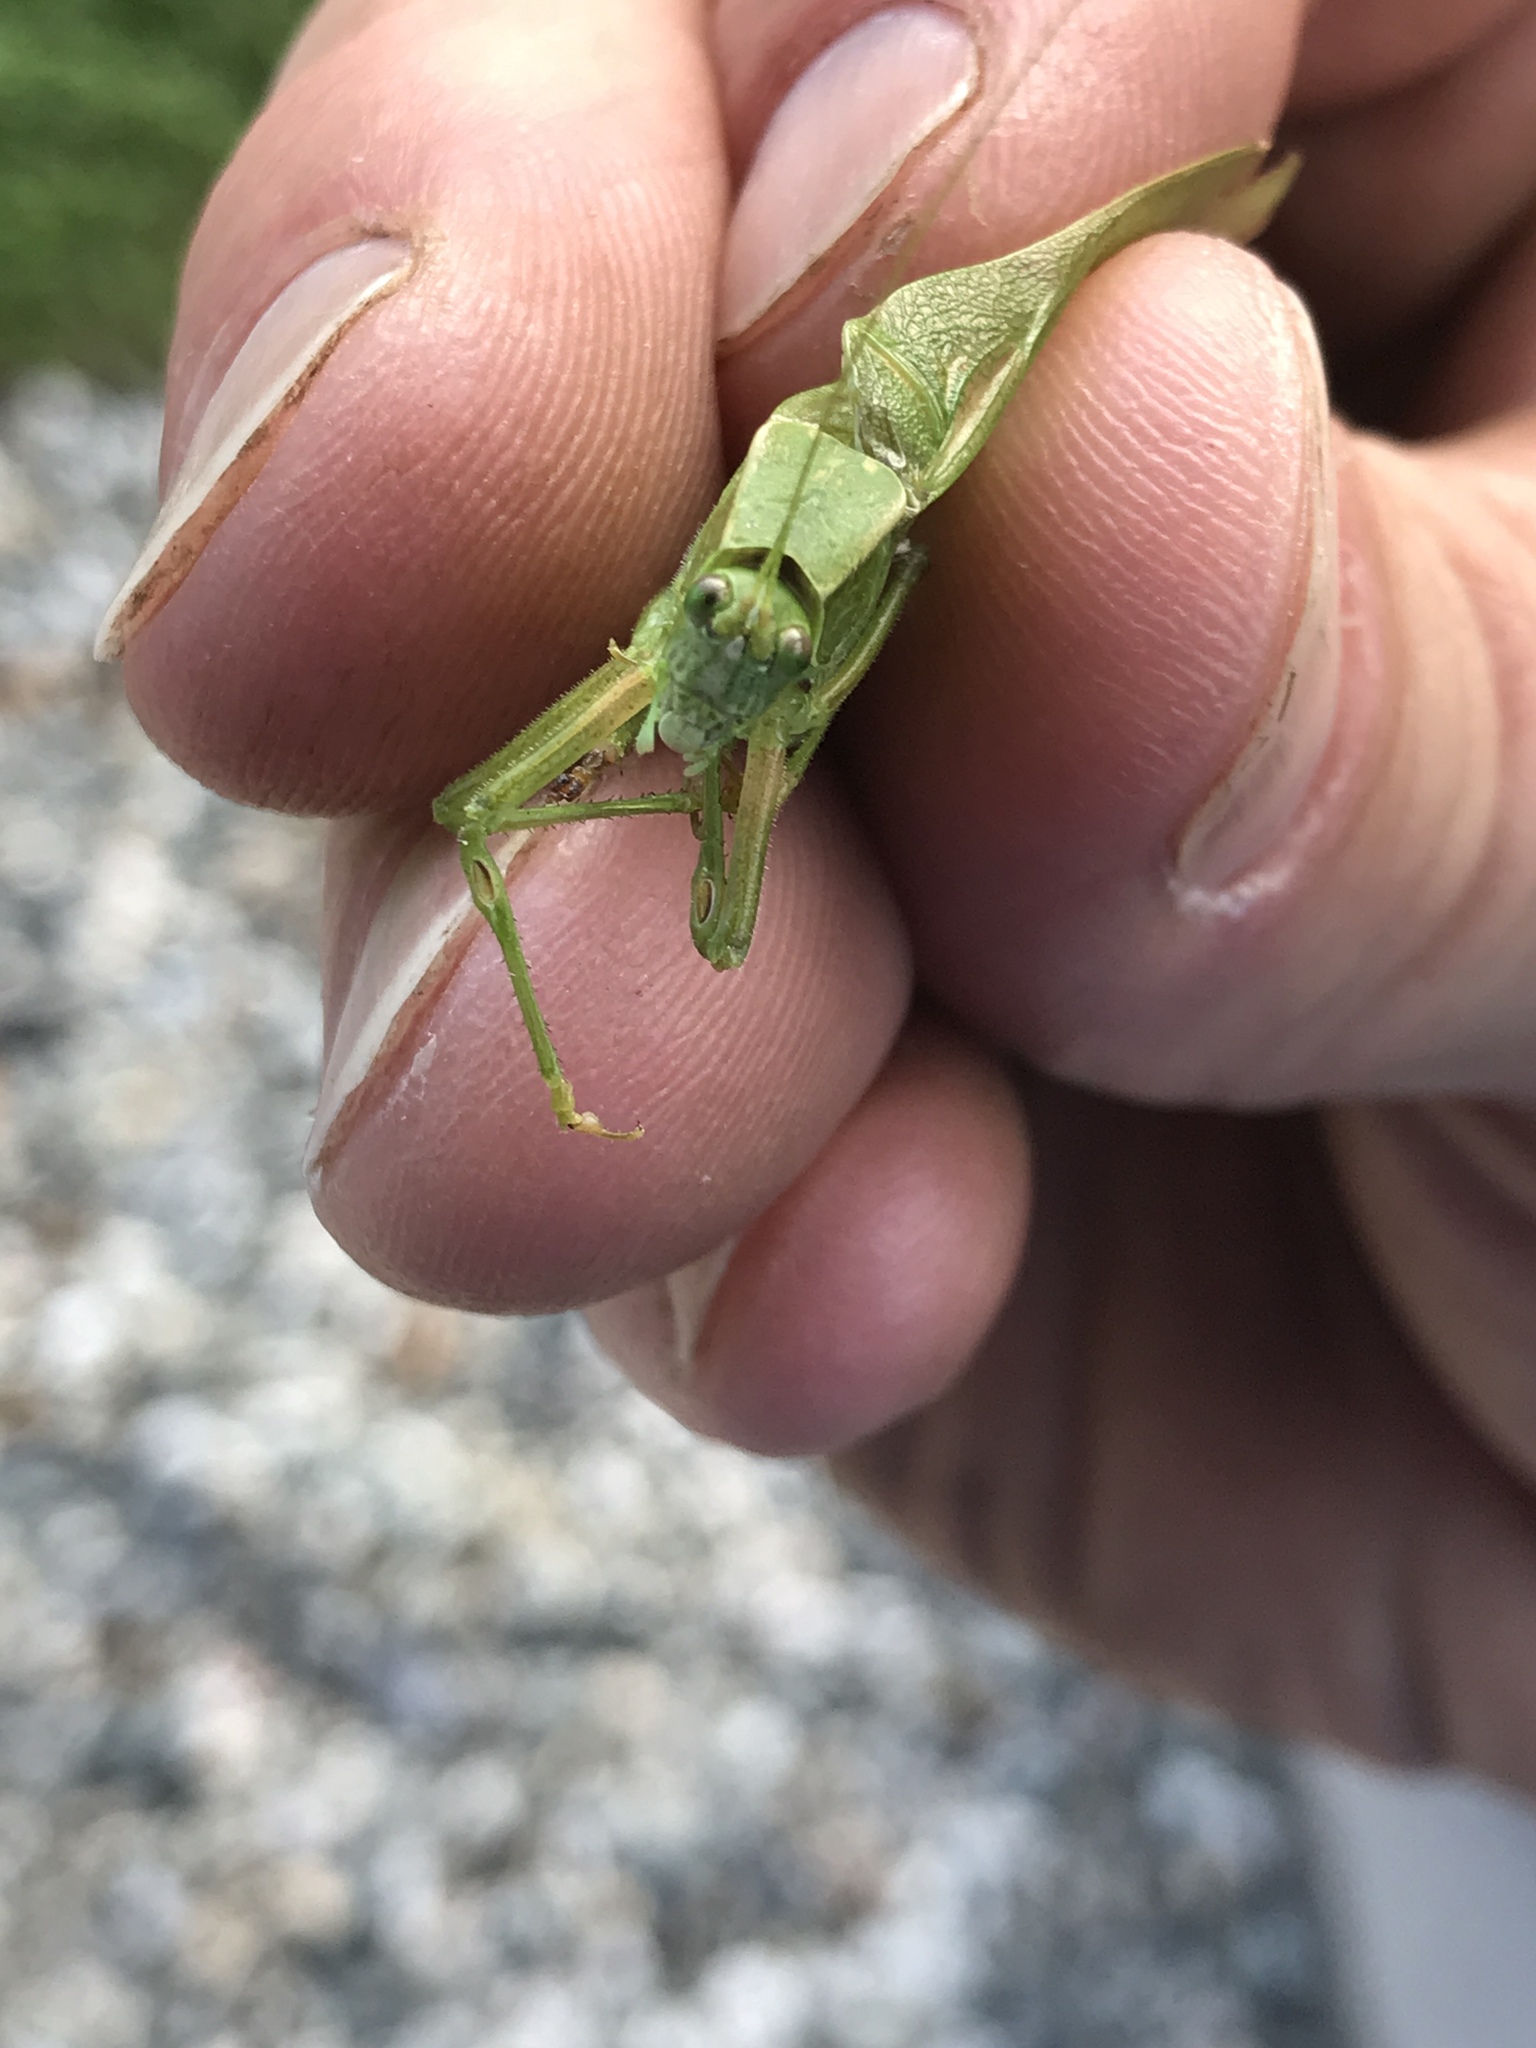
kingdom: Animalia
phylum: Arthropoda
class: Insecta
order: Orthoptera
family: Tettigoniidae
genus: Scudderia
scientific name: Scudderia pistillata
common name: Broad-winged bush-katydid
